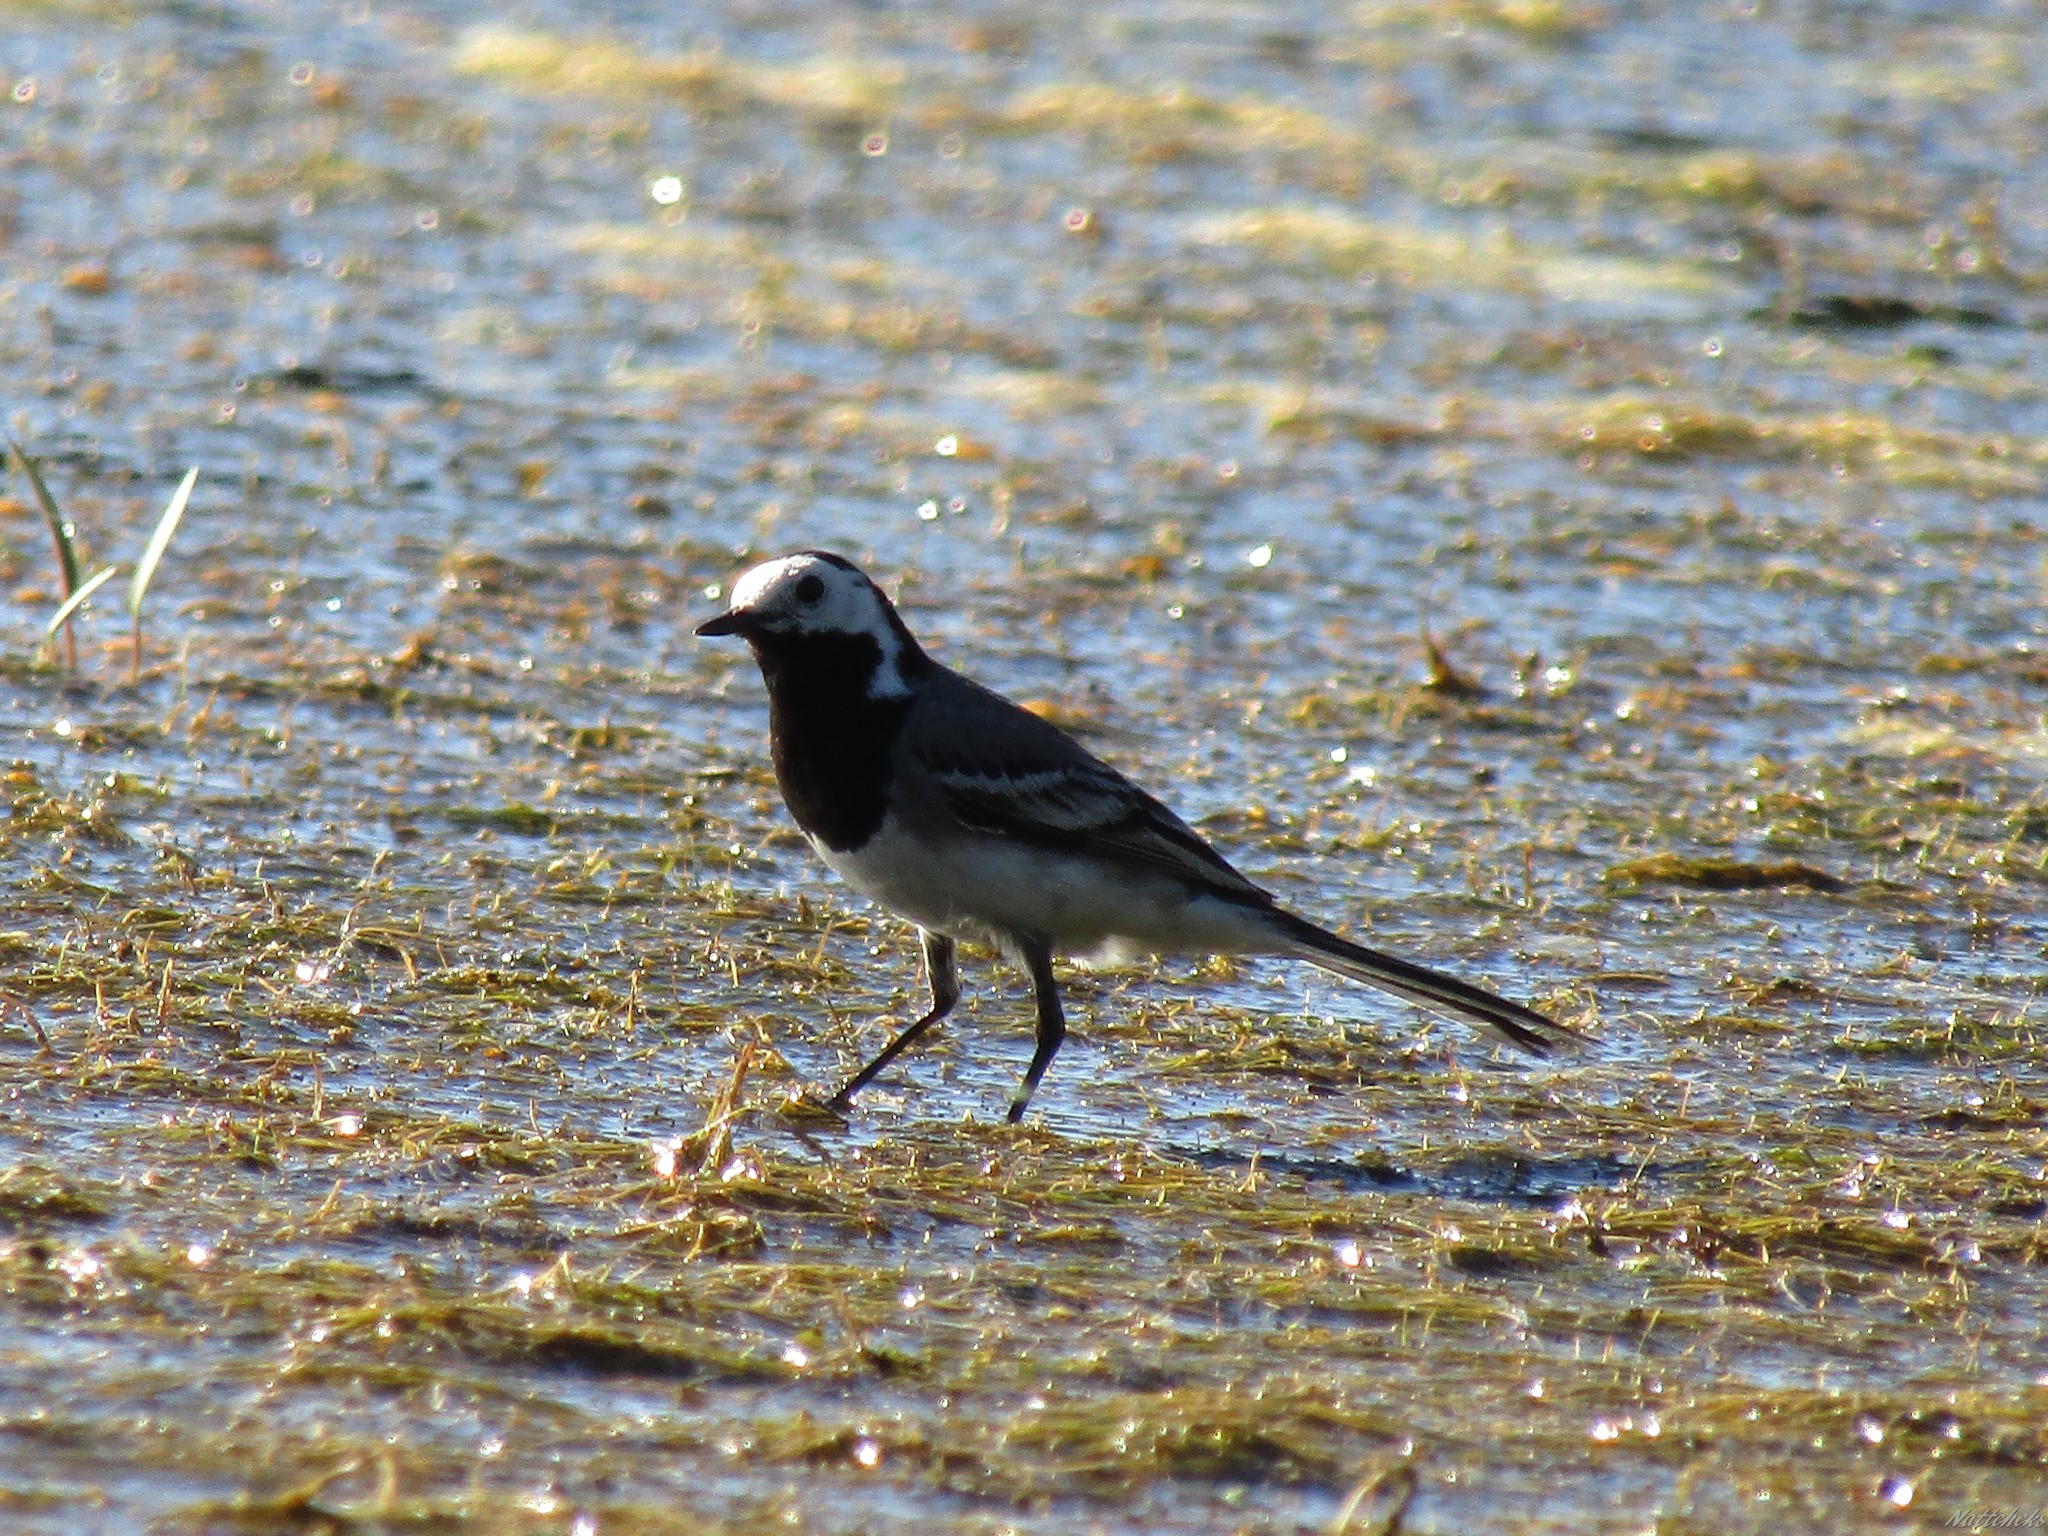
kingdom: Animalia
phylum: Chordata
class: Aves
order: Passeriformes
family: Motacillidae
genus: Motacilla
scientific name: Motacilla alba
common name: White wagtail
